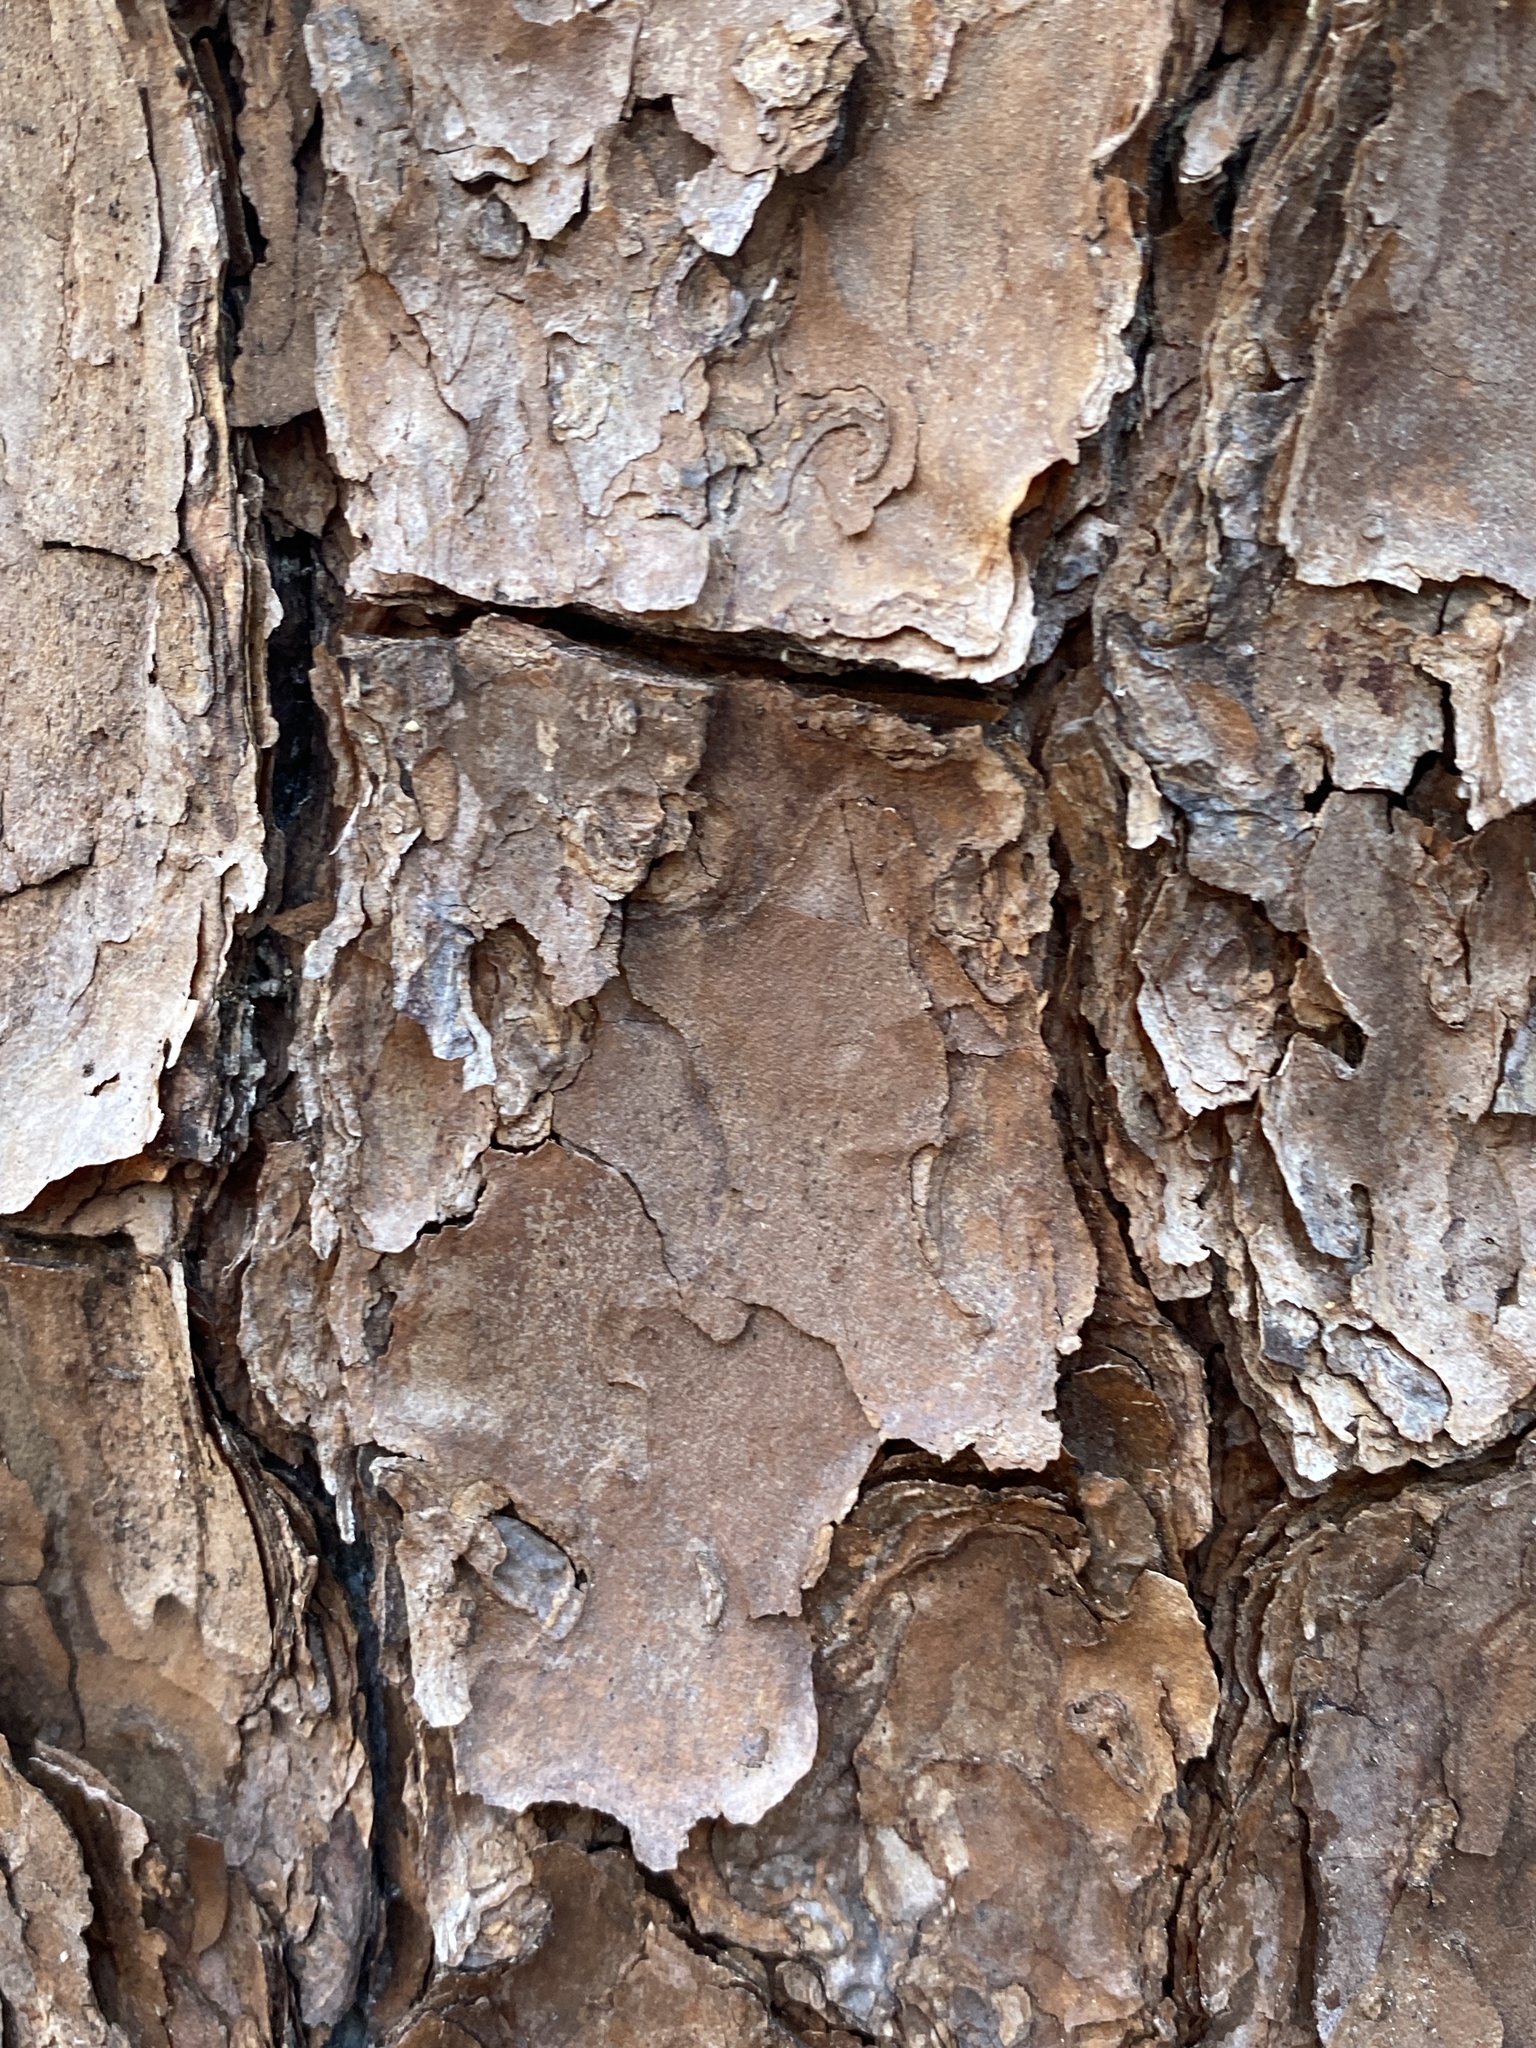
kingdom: Plantae
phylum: Tracheophyta
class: Pinopsida
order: Pinales
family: Pinaceae
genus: Pinus
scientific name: Pinus virginiana
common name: Scrub pine
